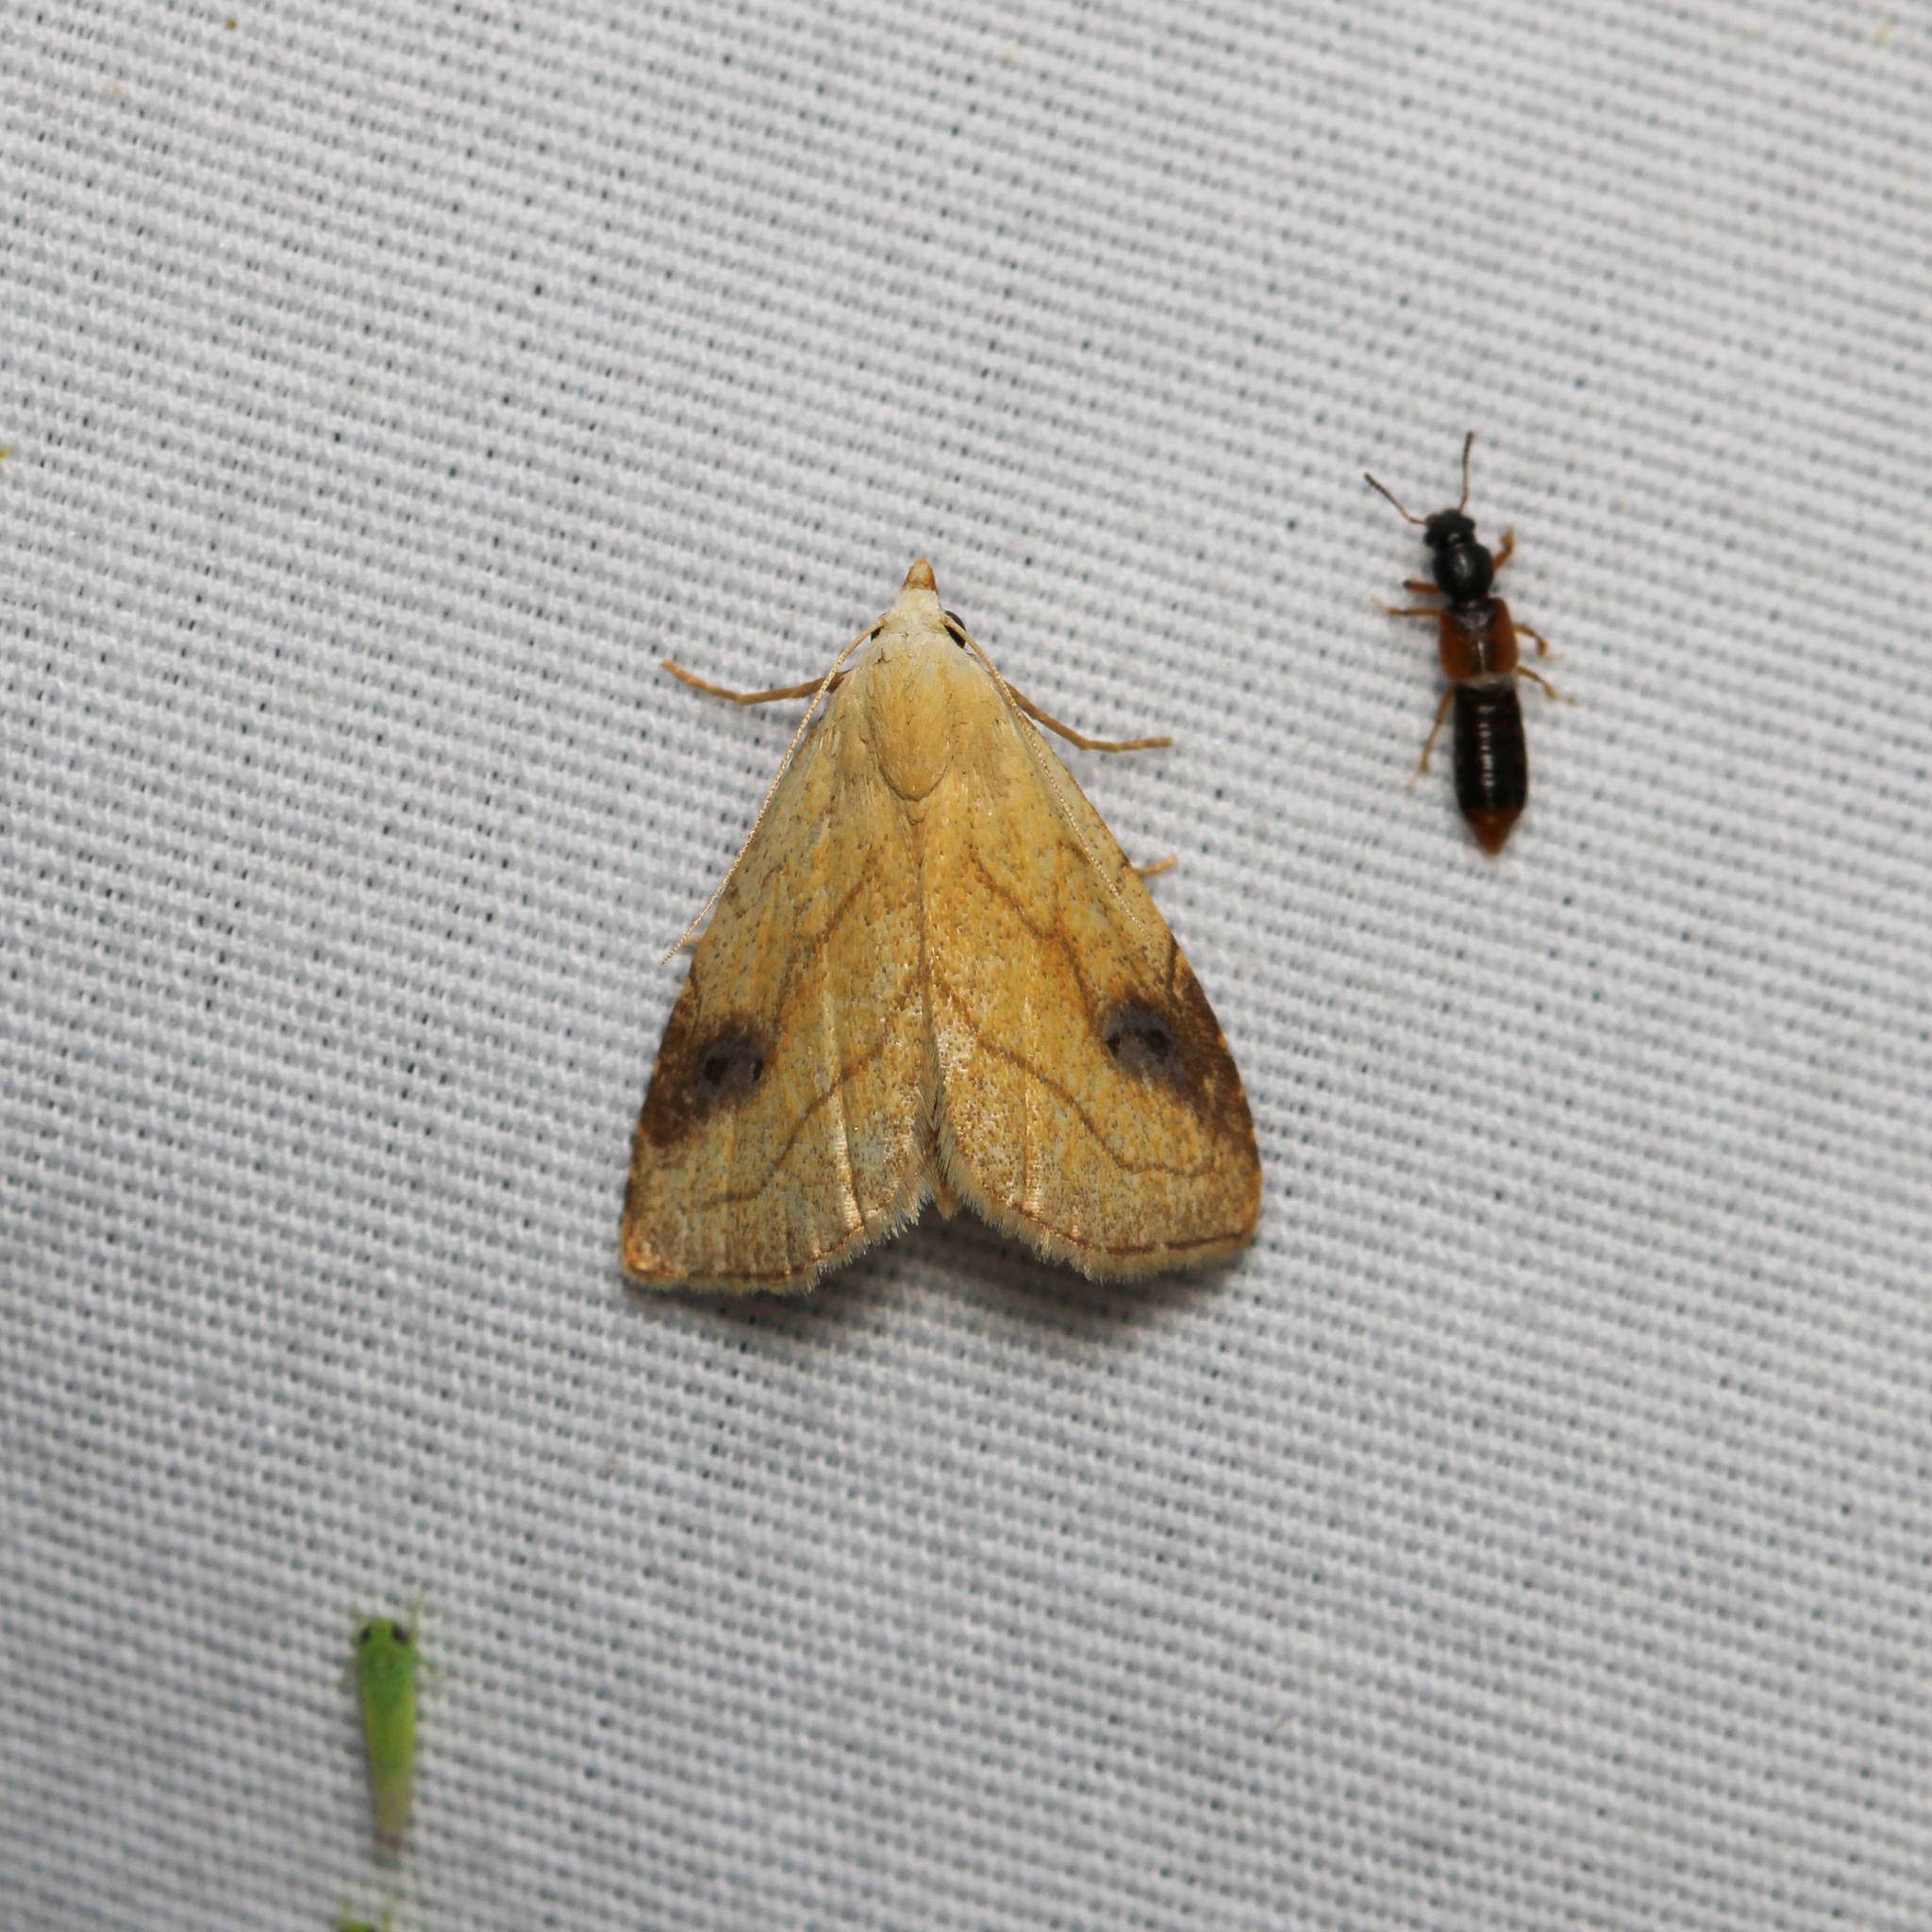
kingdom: Animalia
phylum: Arthropoda
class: Insecta
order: Lepidoptera
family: Erebidae
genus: Rivula
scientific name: Rivula propinqualis
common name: Spotted grass moth
